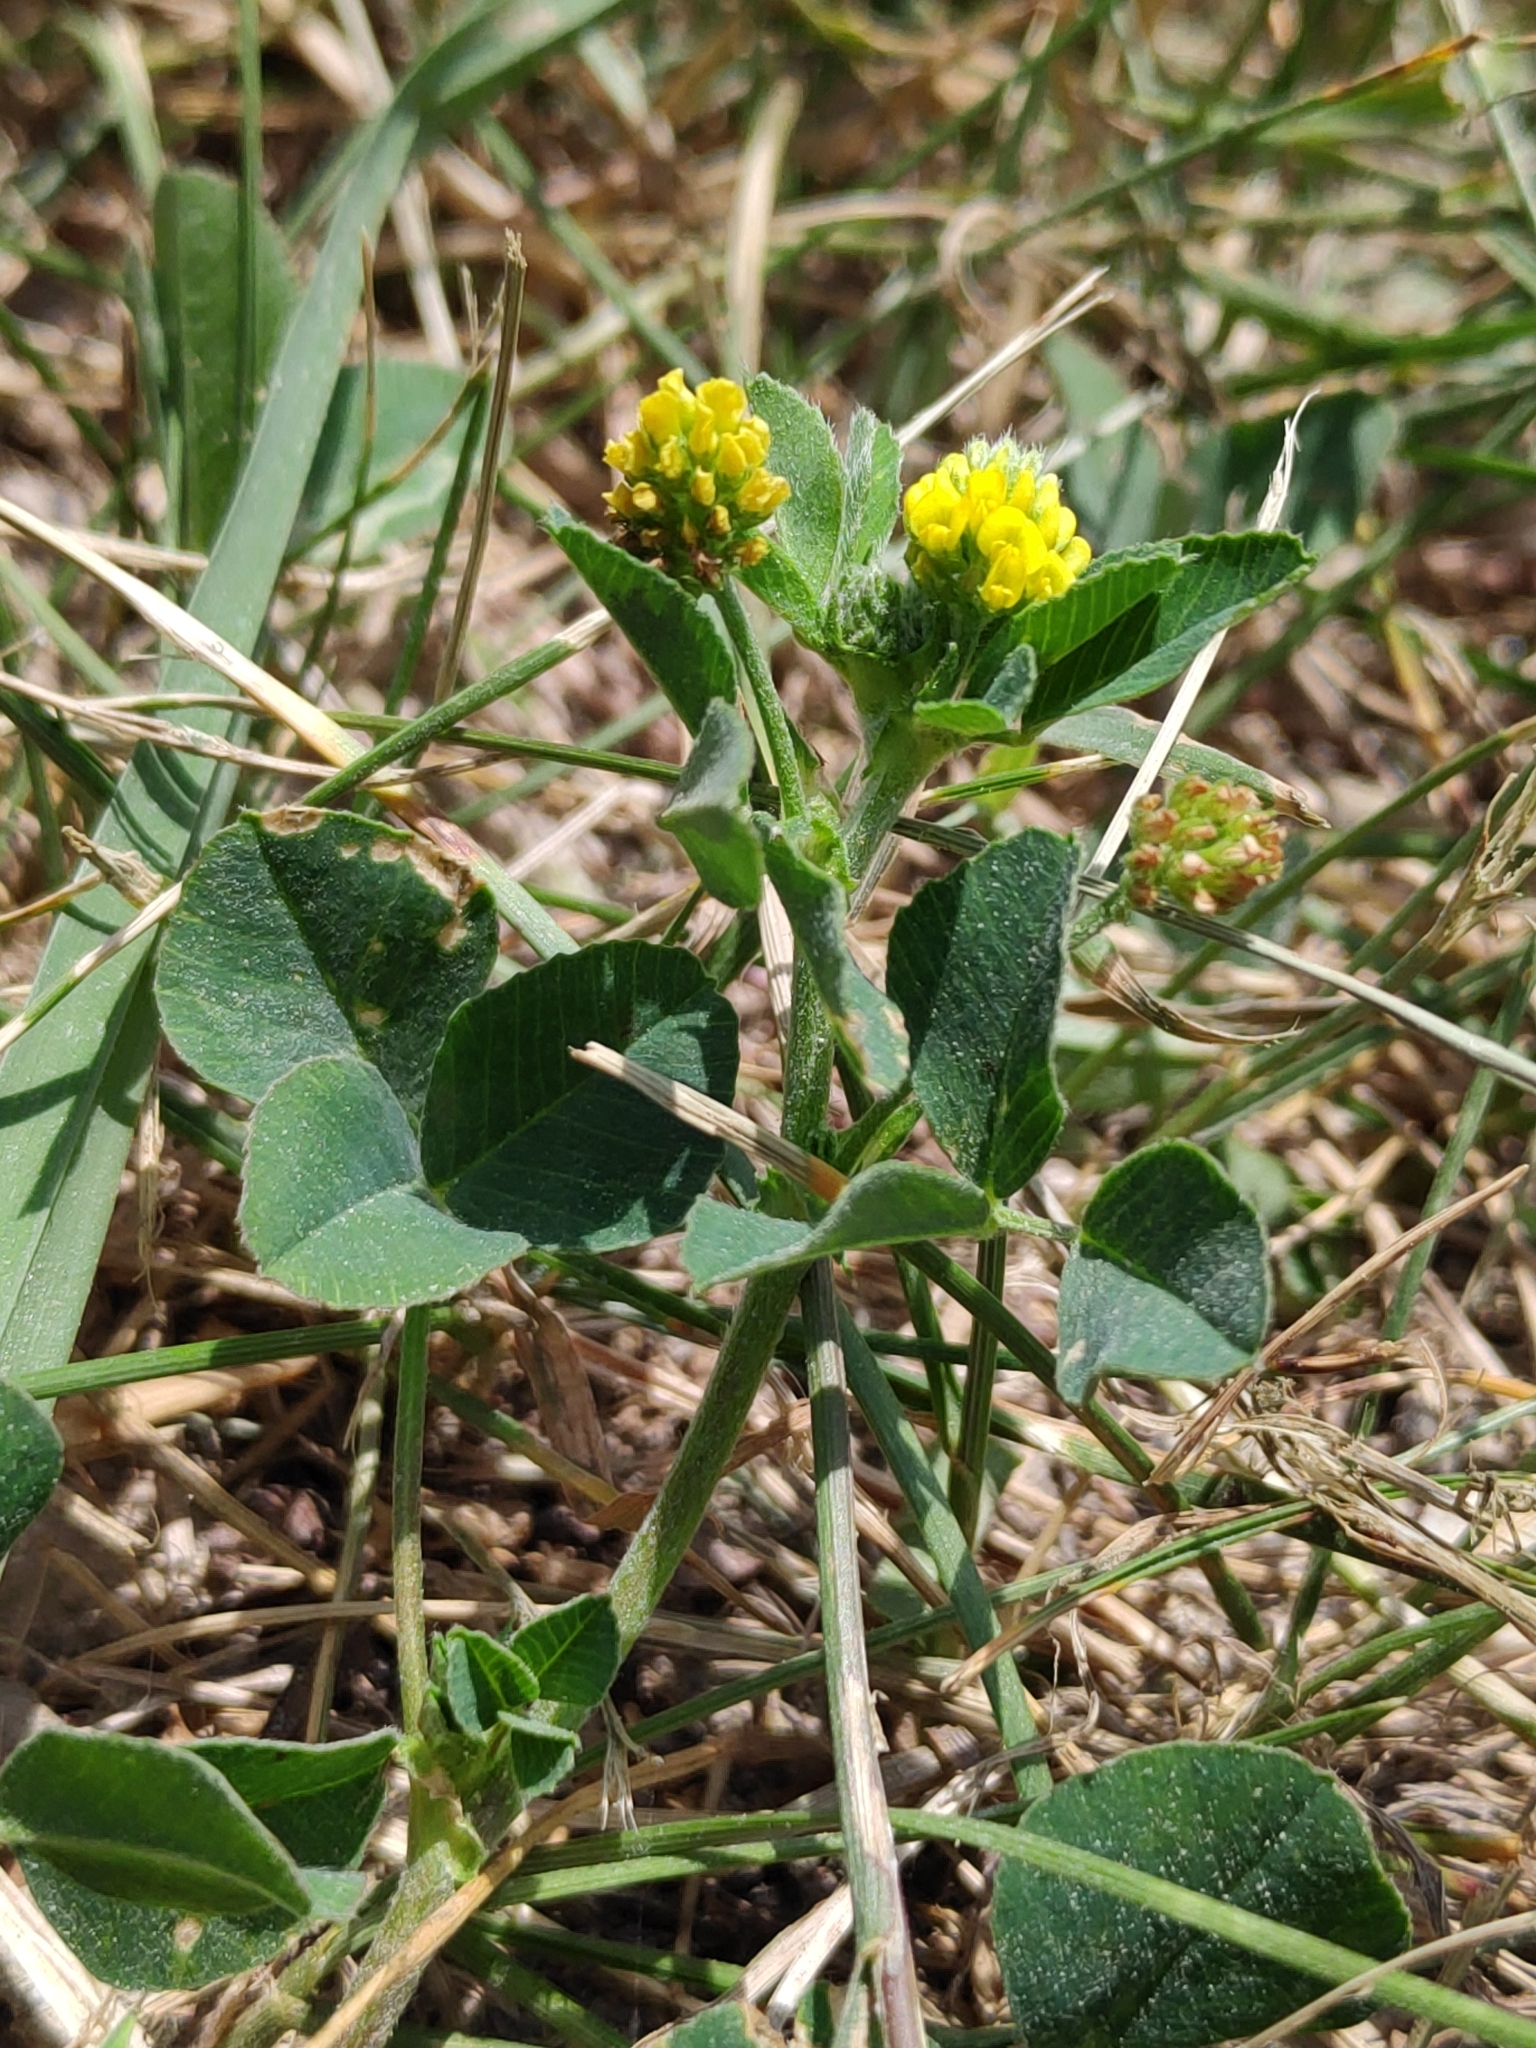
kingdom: Plantae
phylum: Tracheophyta
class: Magnoliopsida
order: Fabales
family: Fabaceae
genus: Medicago
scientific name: Medicago lupulina
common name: Black medick
